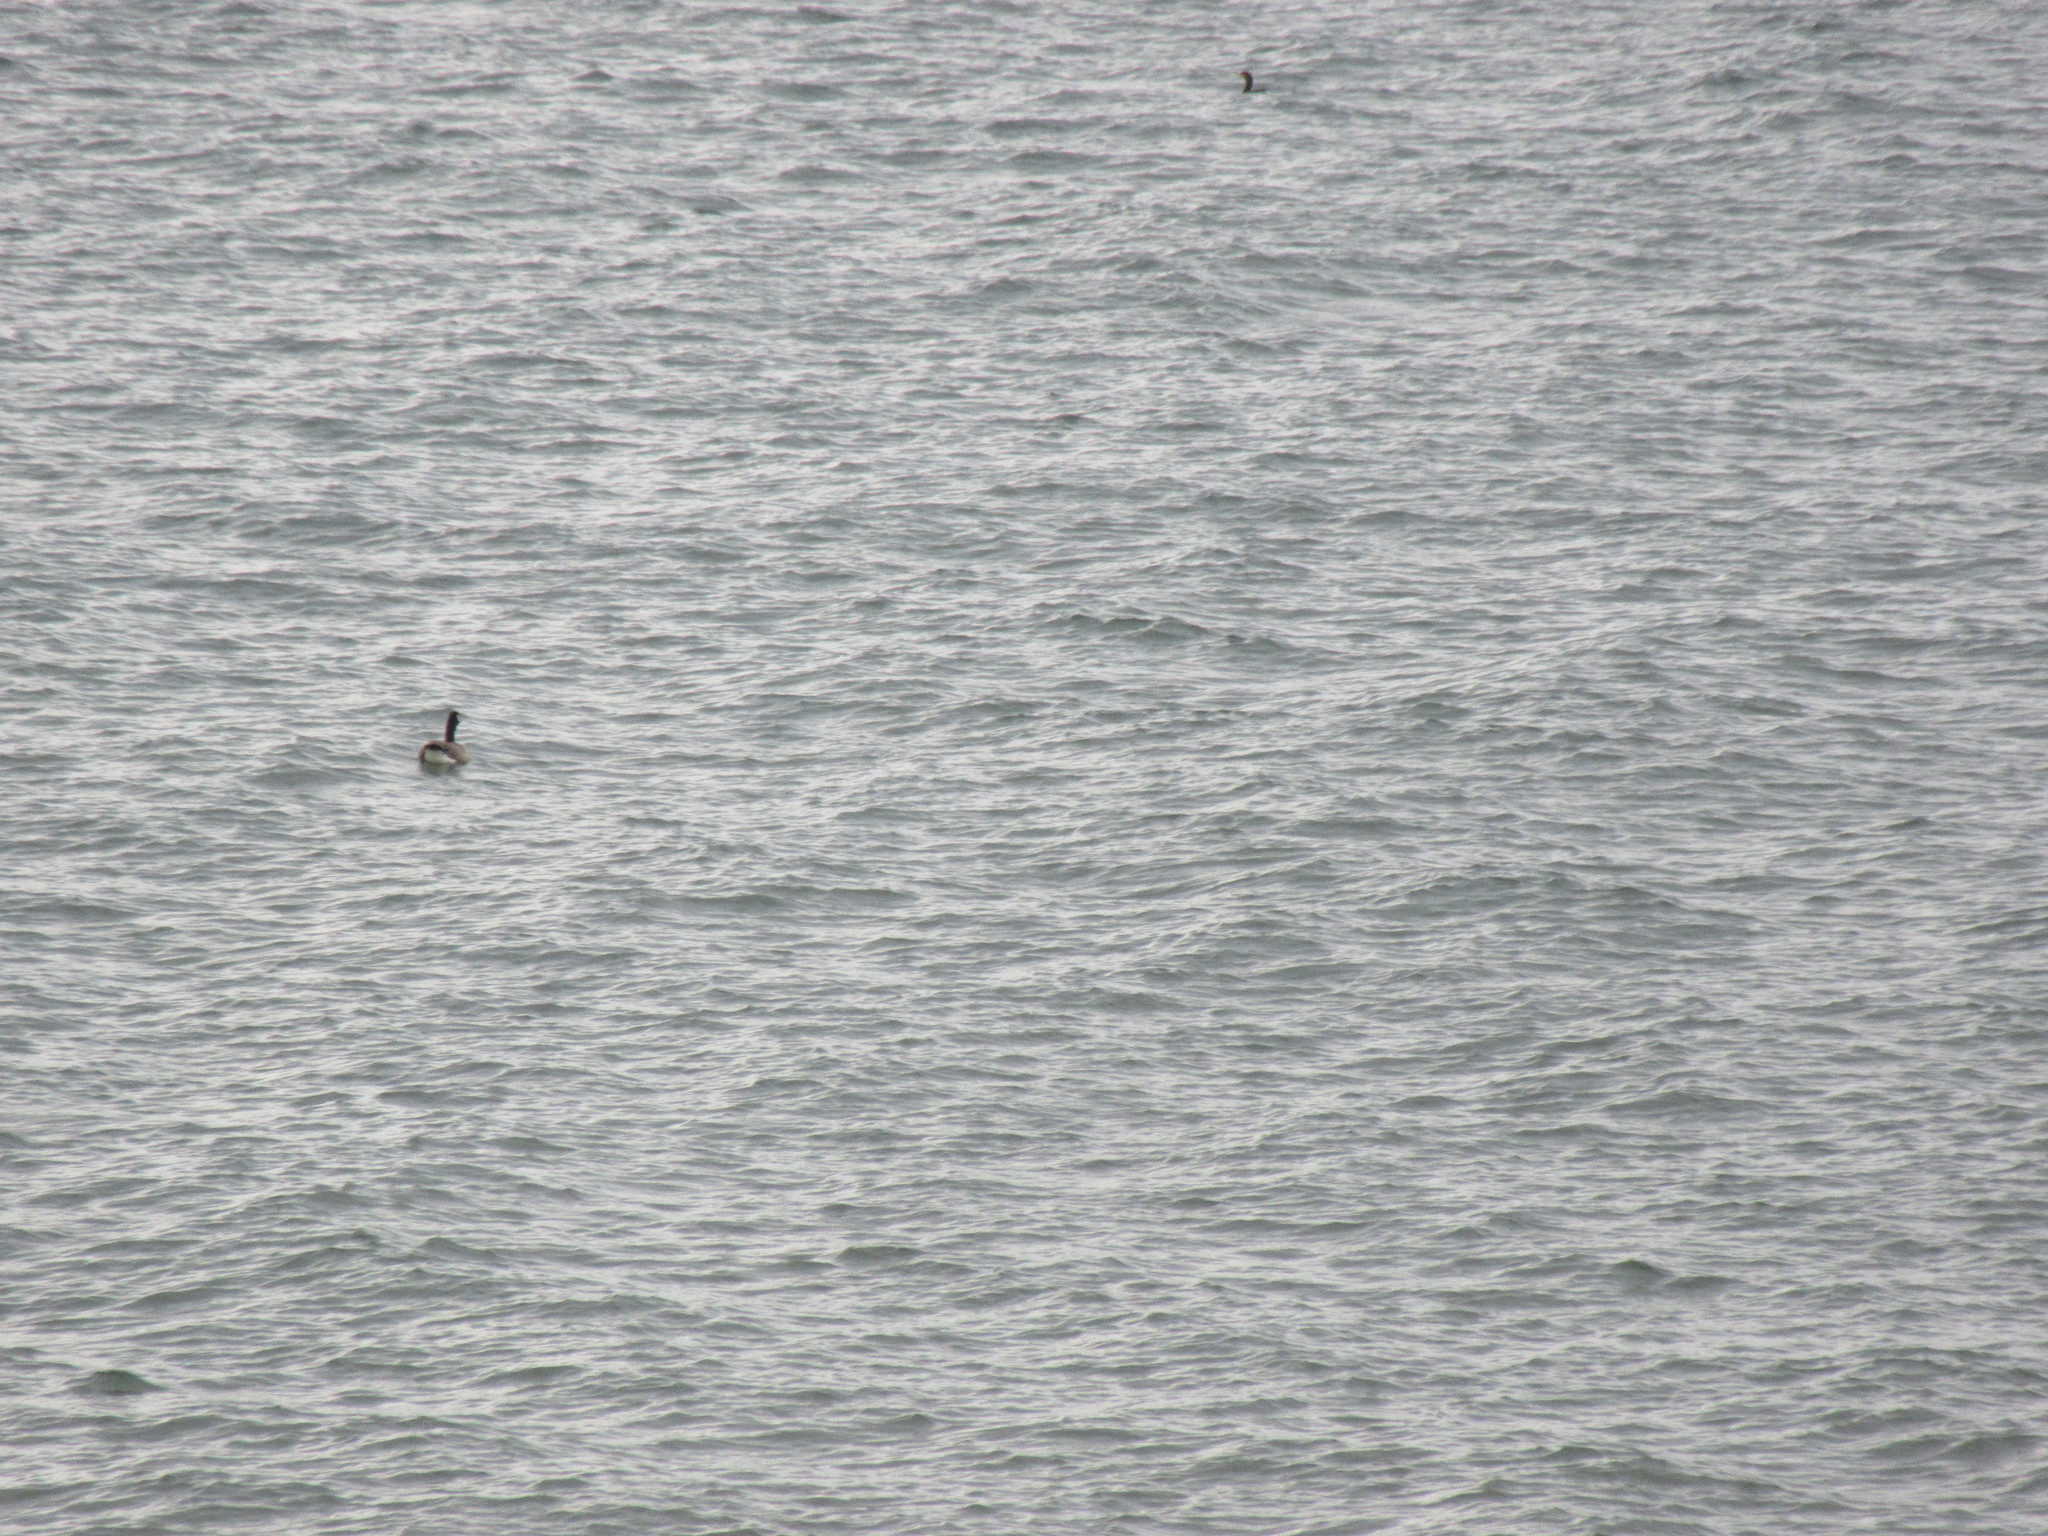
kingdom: Animalia
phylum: Chordata
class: Aves
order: Anseriformes
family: Anatidae
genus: Branta
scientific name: Branta canadensis
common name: Canada goose
